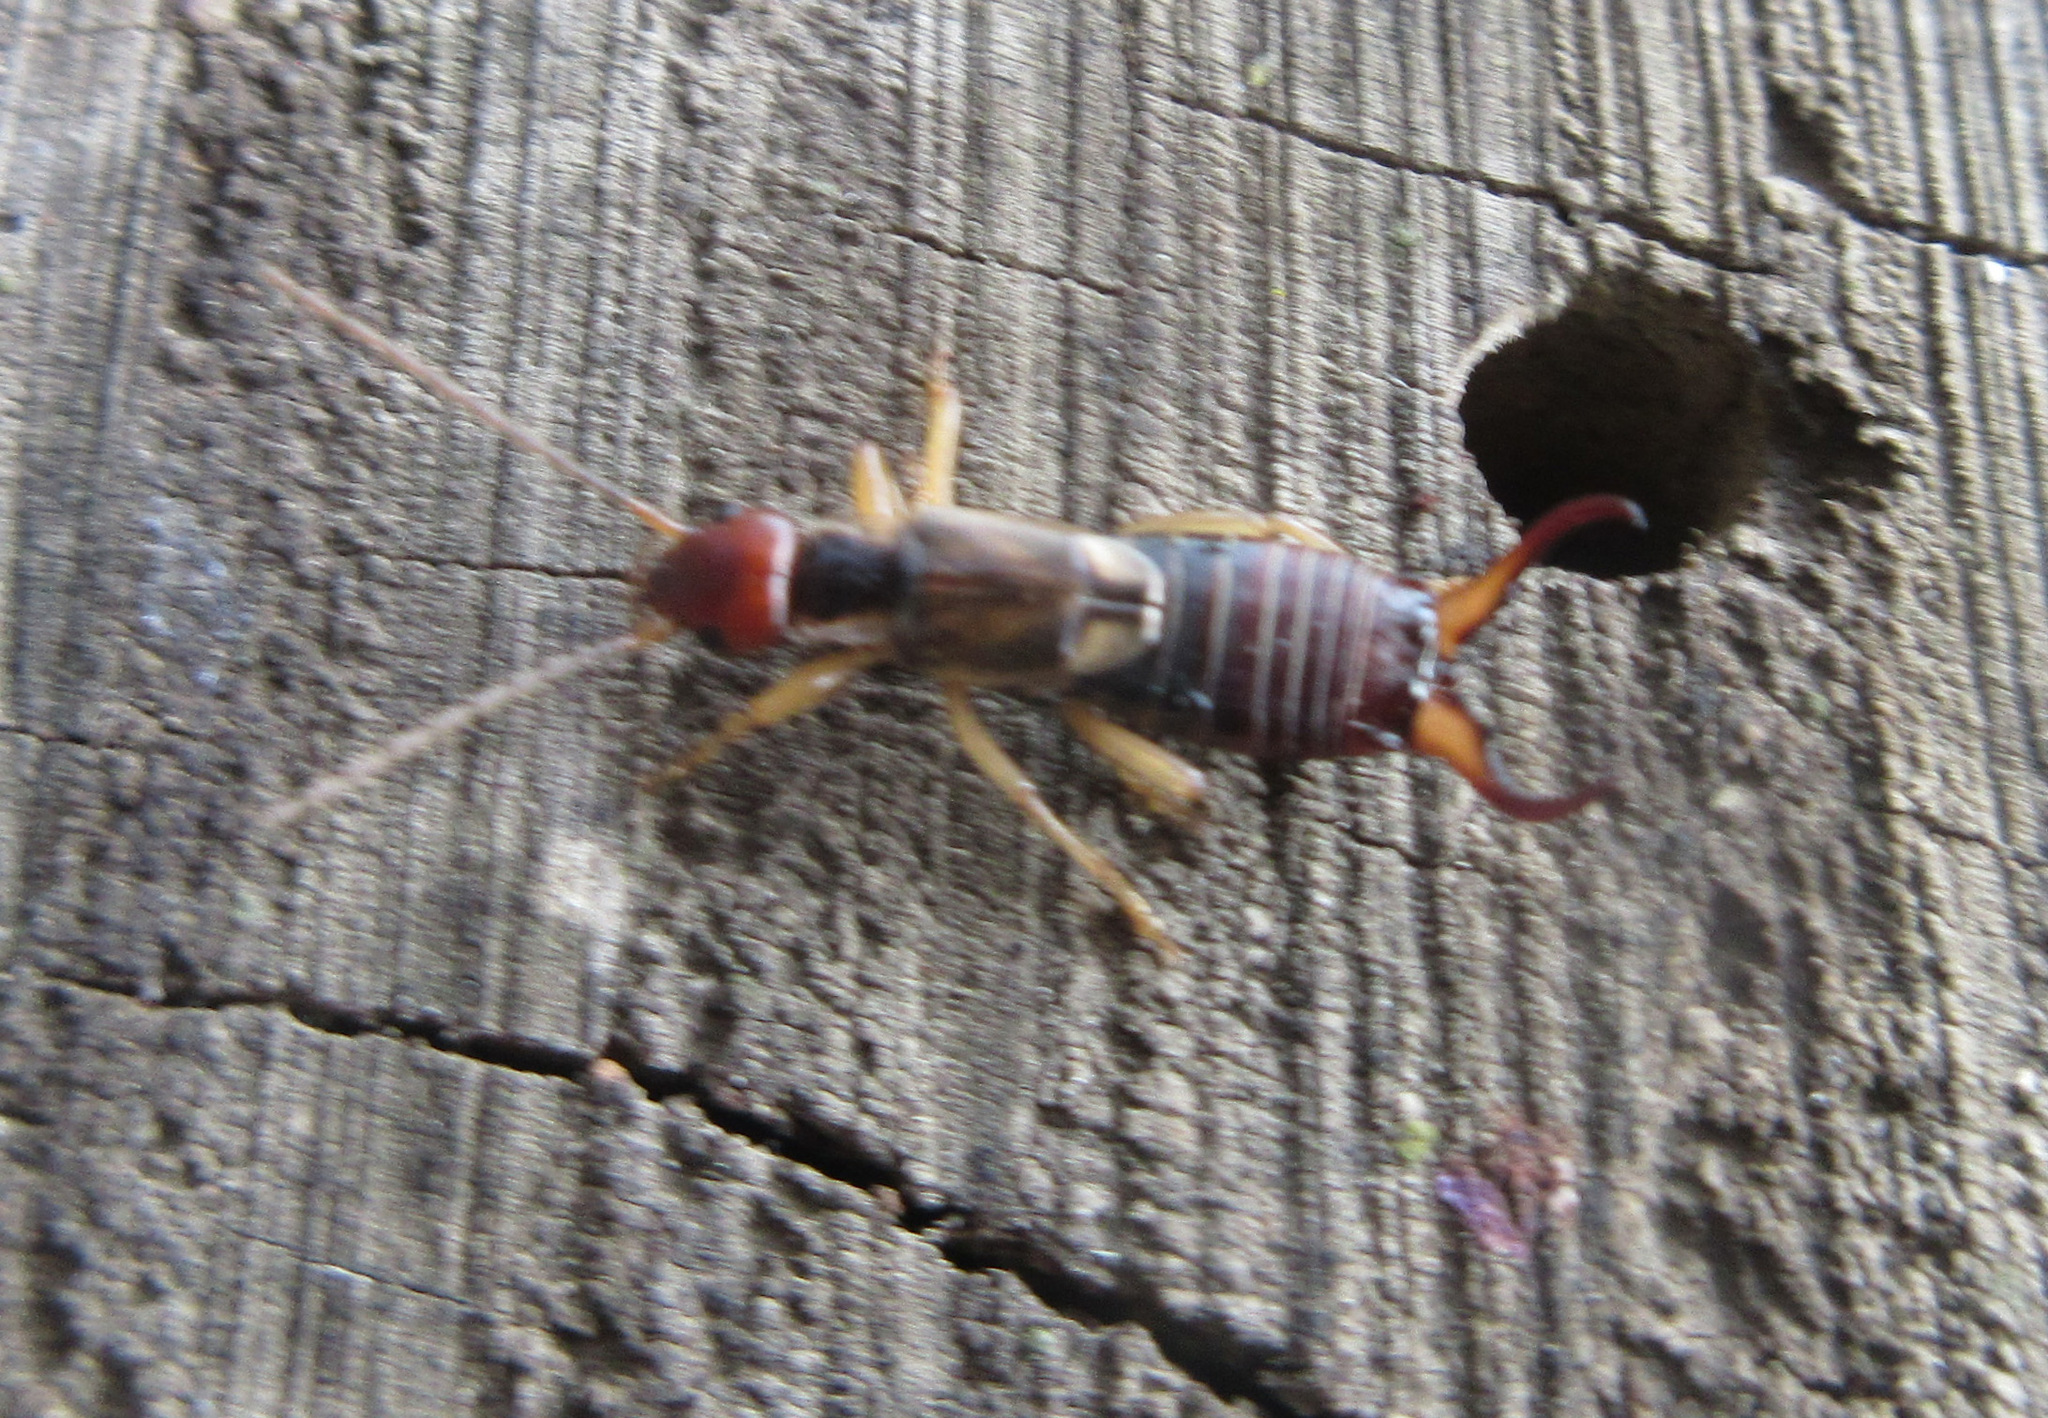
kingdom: Animalia
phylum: Arthropoda
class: Insecta
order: Dermaptera
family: Forficulidae
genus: Forficula
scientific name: Forficula
